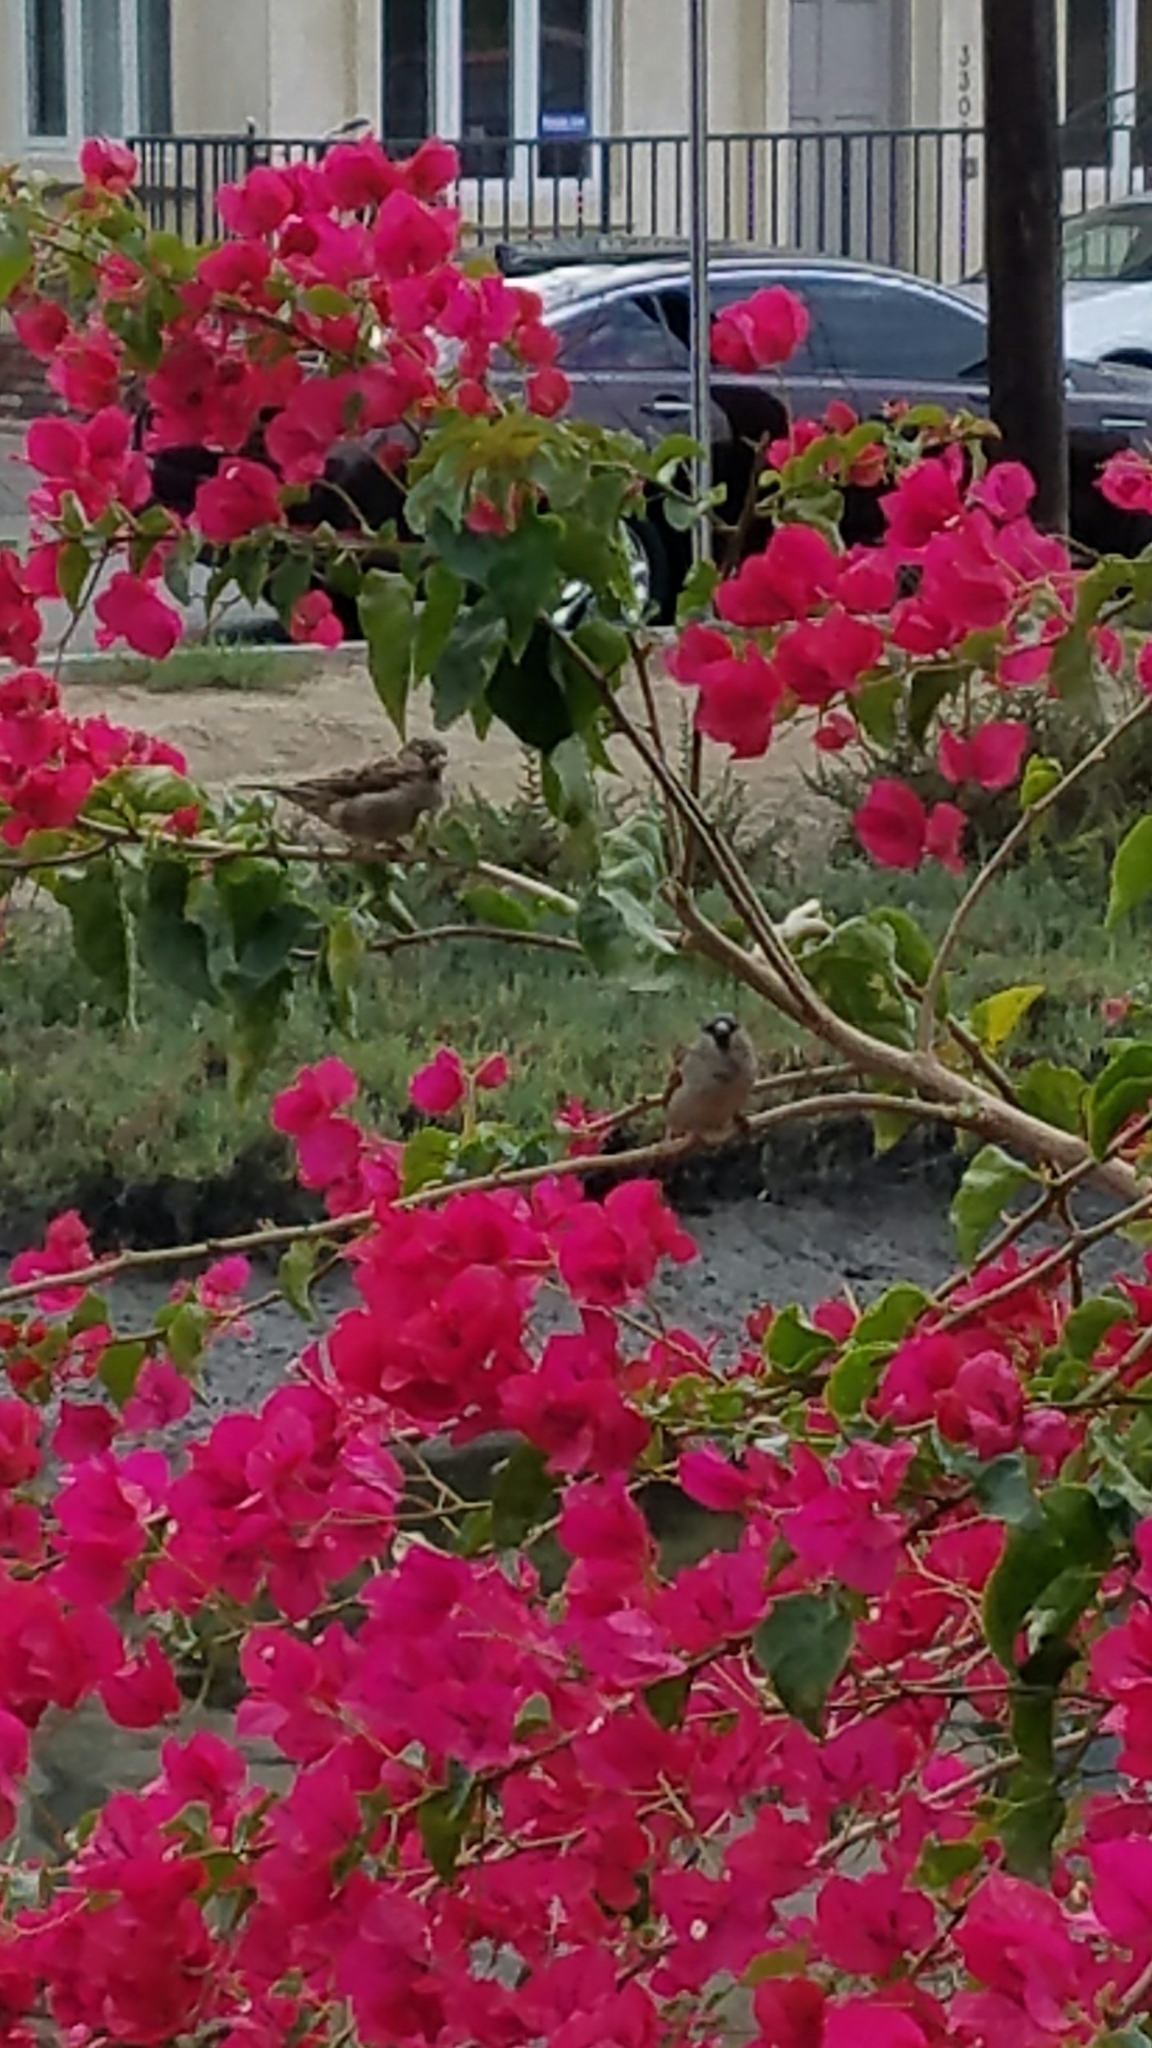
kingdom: Animalia
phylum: Chordata
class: Aves
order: Passeriformes
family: Passeridae
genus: Passer
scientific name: Passer domesticus
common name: House sparrow
